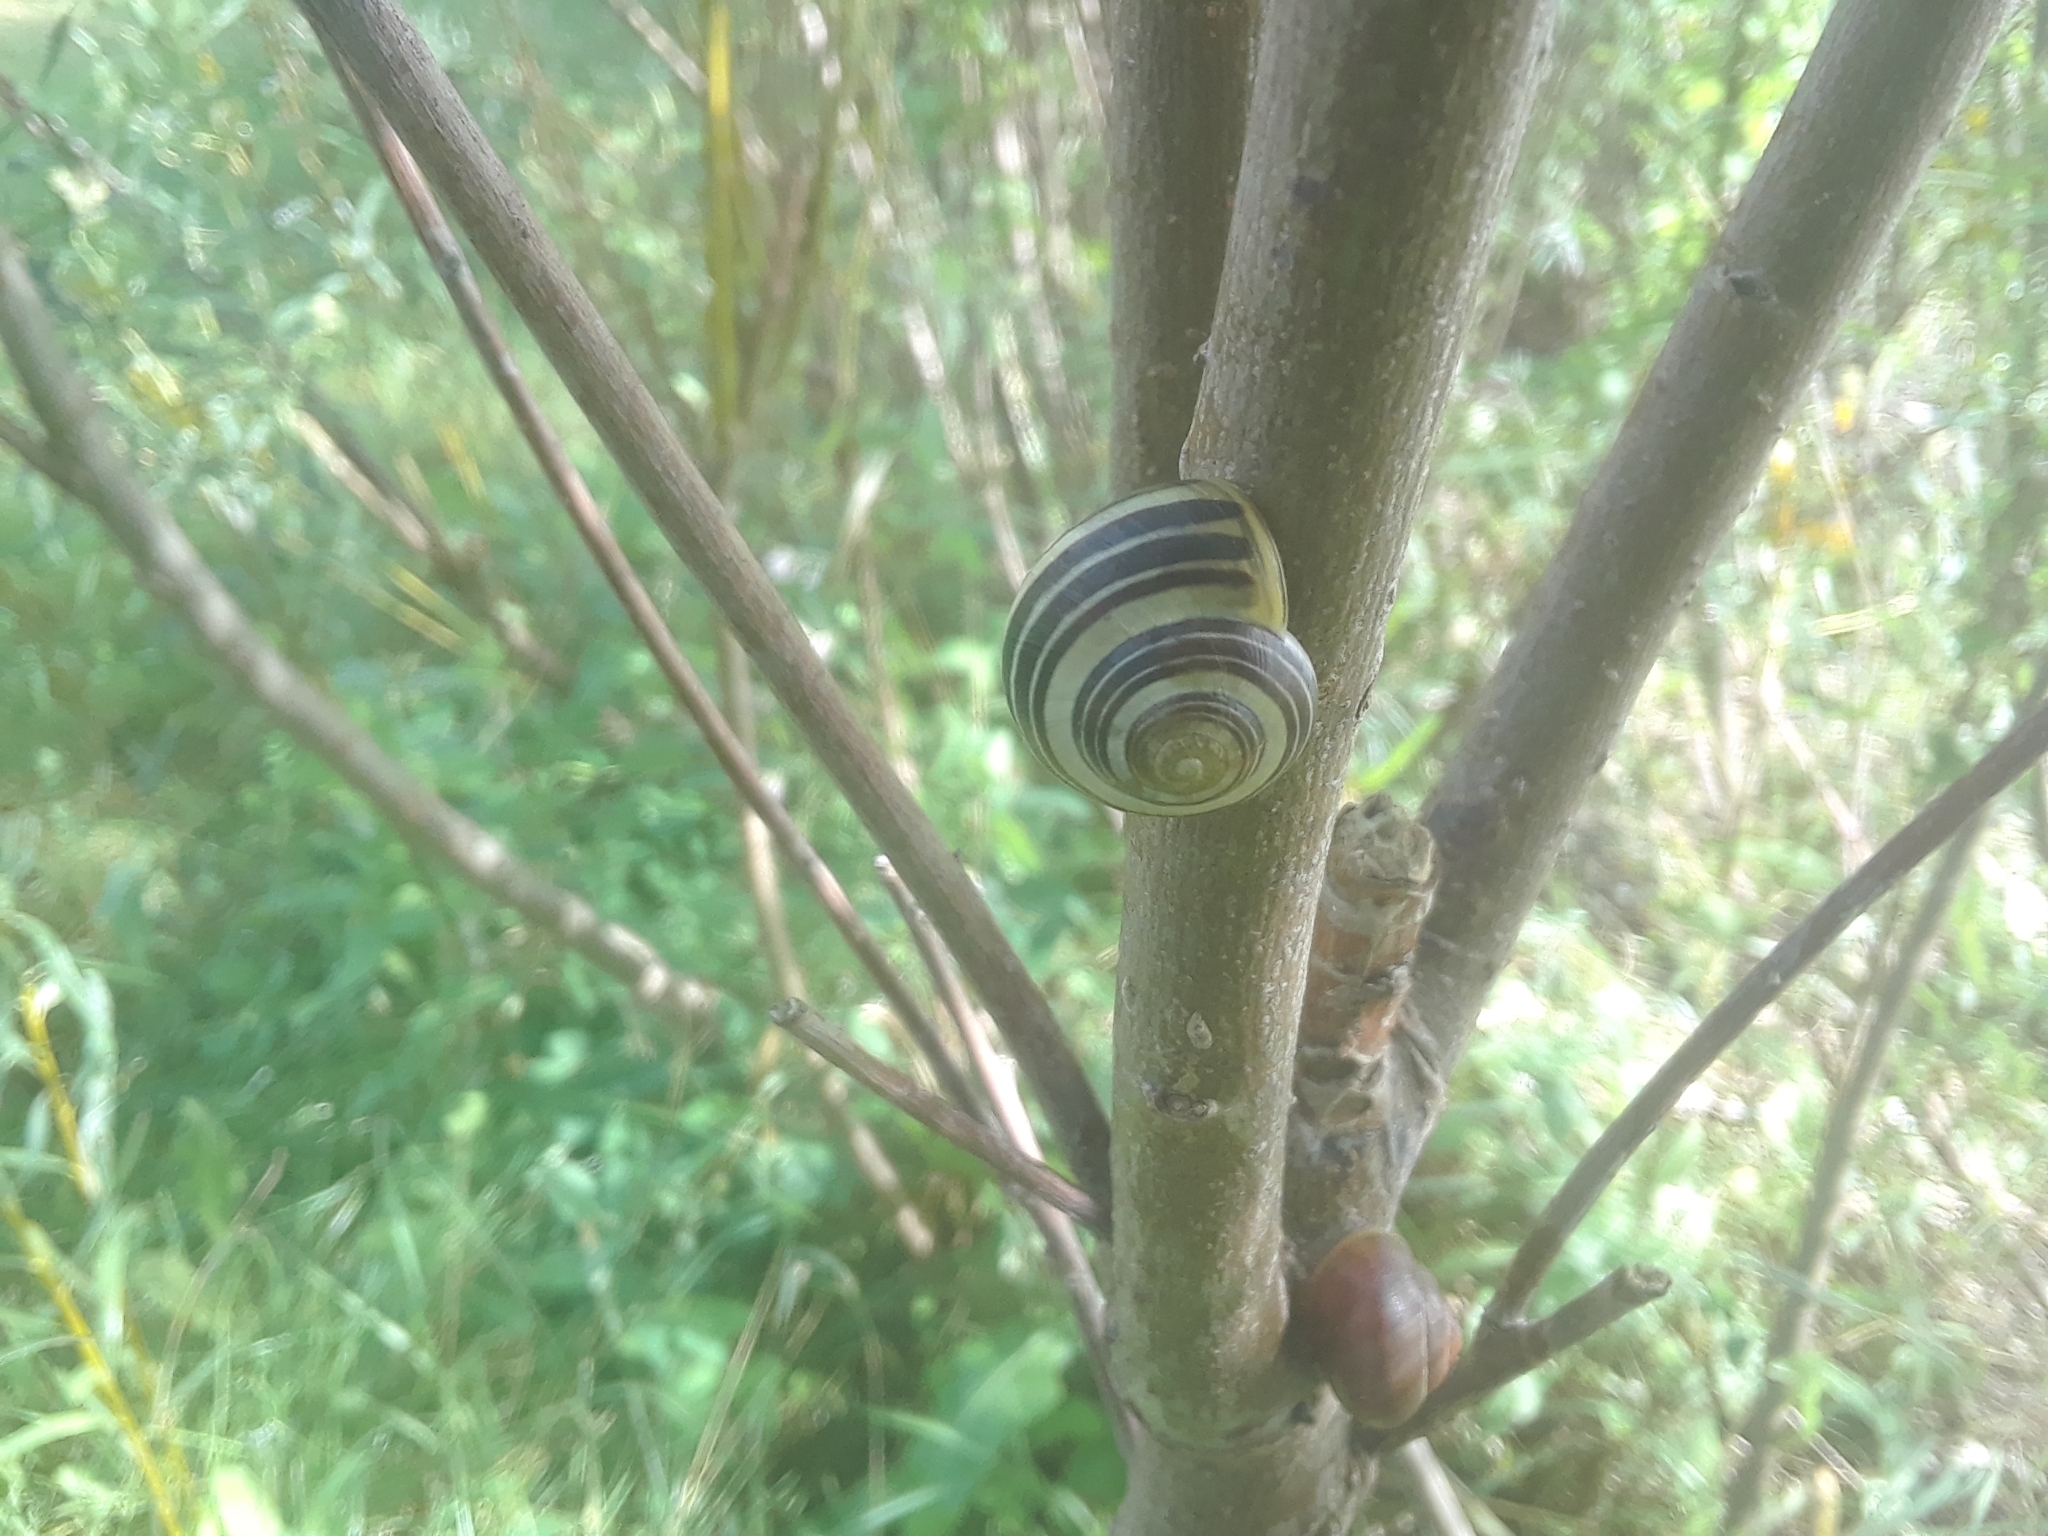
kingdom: Animalia
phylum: Mollusca
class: Gastropoda
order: Stylommatophora
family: Helicidae
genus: Cepaea
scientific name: Cepaea
